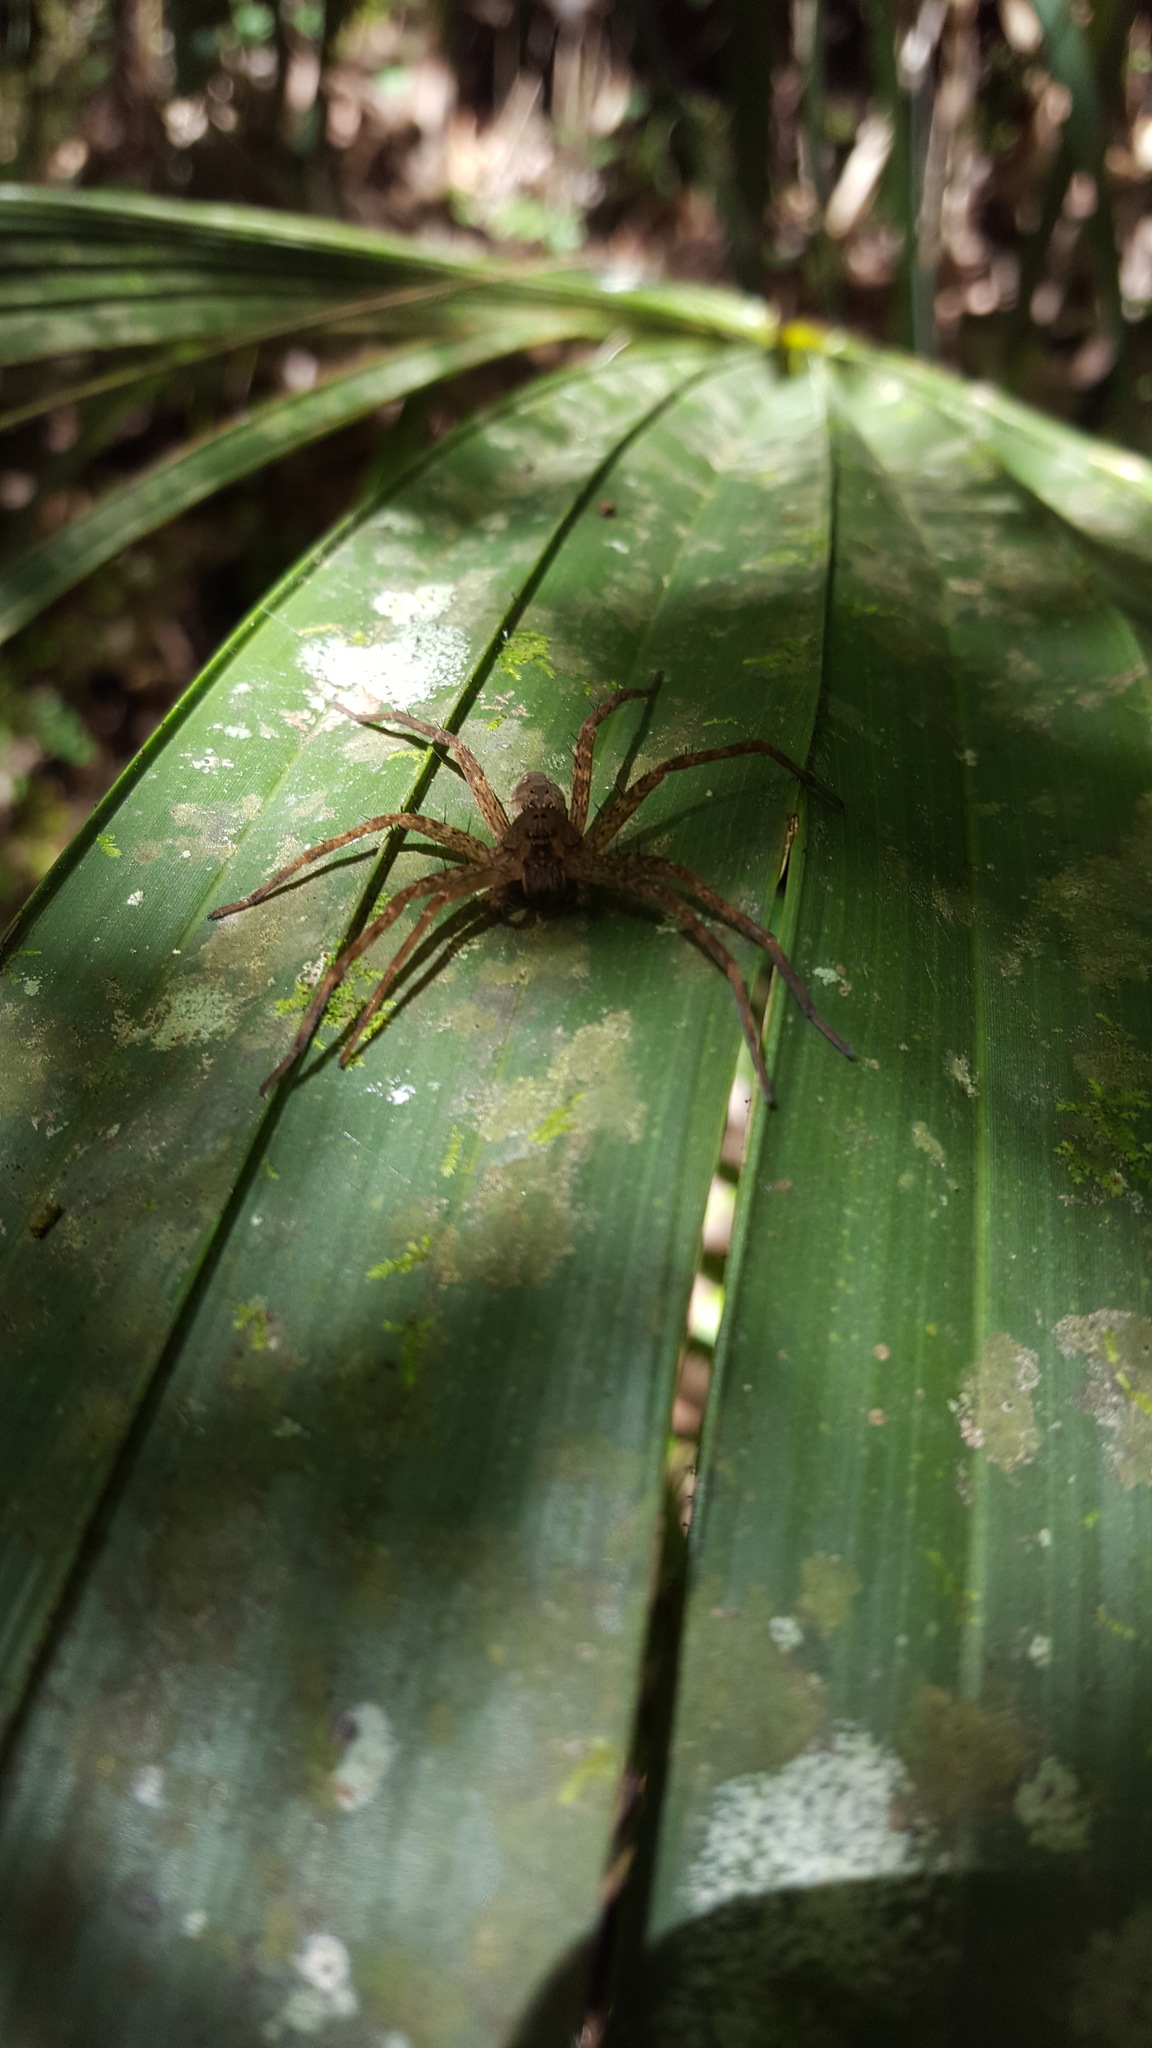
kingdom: Animalia
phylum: Arthropoda
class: Arachnida
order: Araneae
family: Pisauridae
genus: Dolomedes
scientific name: Dolomedes vittatus
